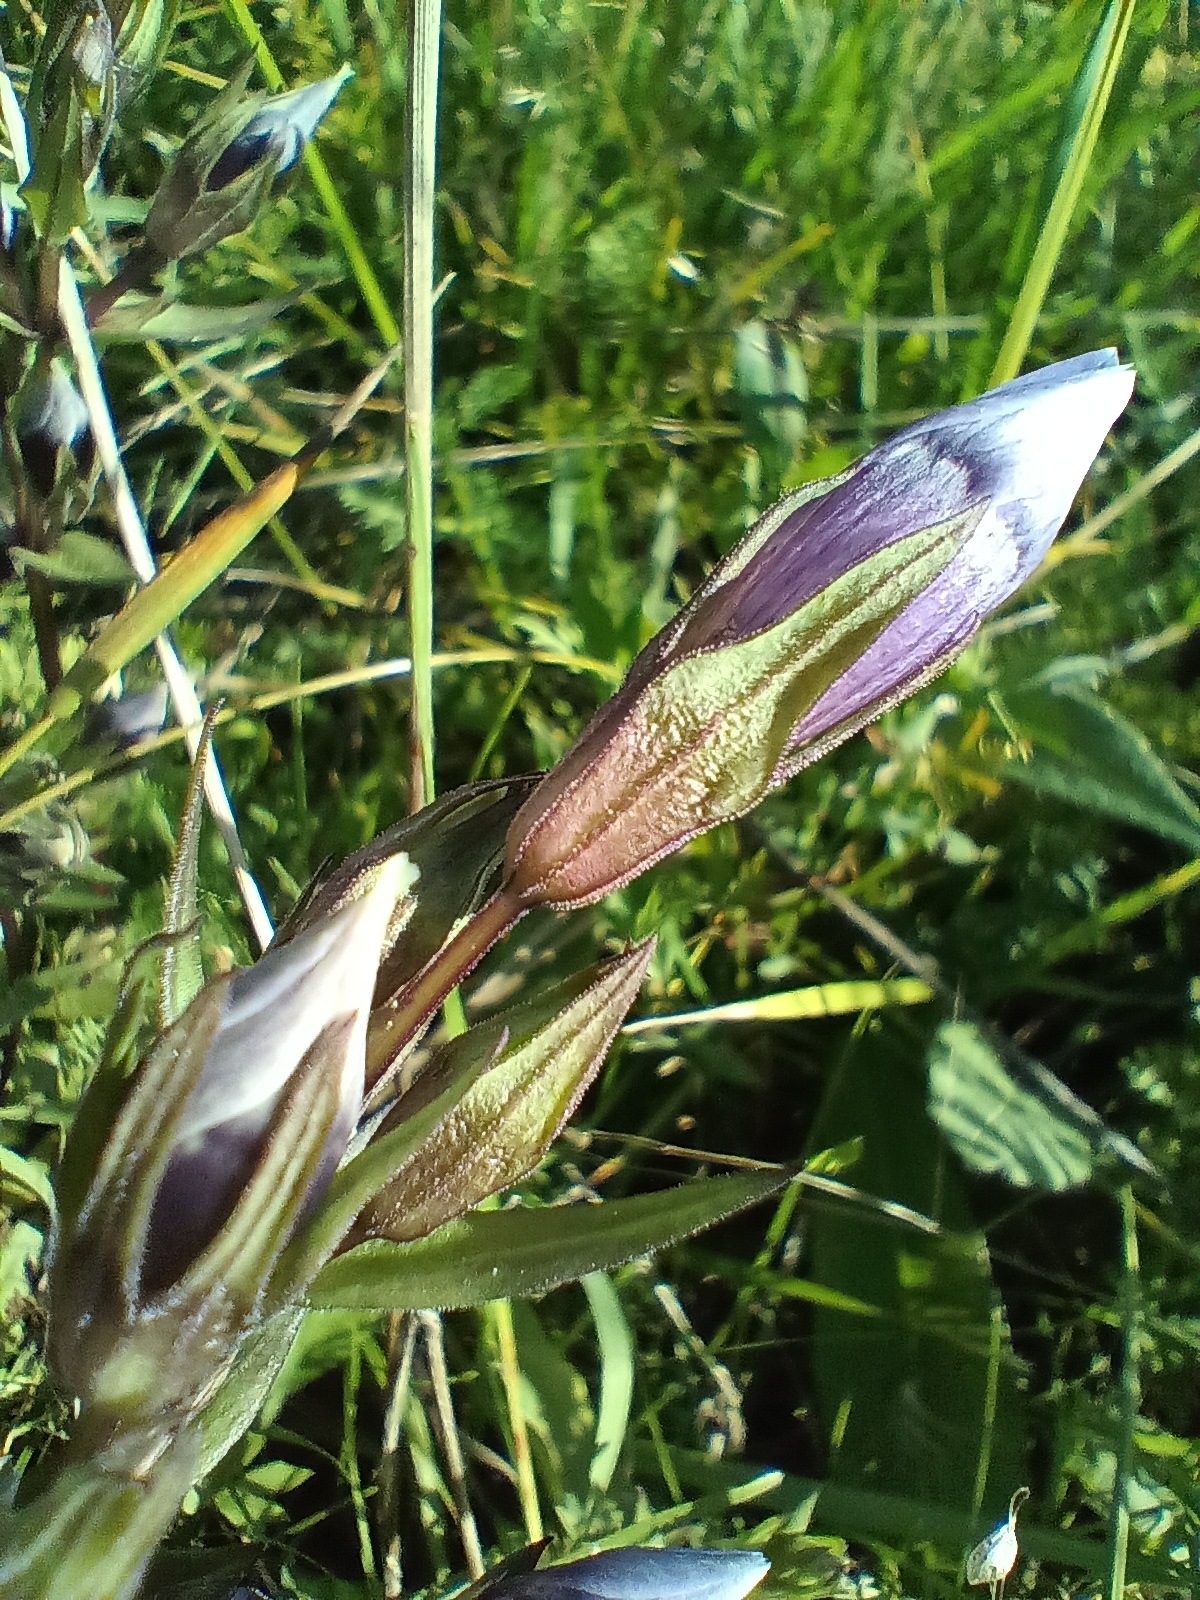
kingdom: Plantae
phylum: Tracheophyta
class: Magnoliopsida
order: Gentianales
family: Gentianaceae
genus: Gentianella
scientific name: Gentianella obtusifolia
